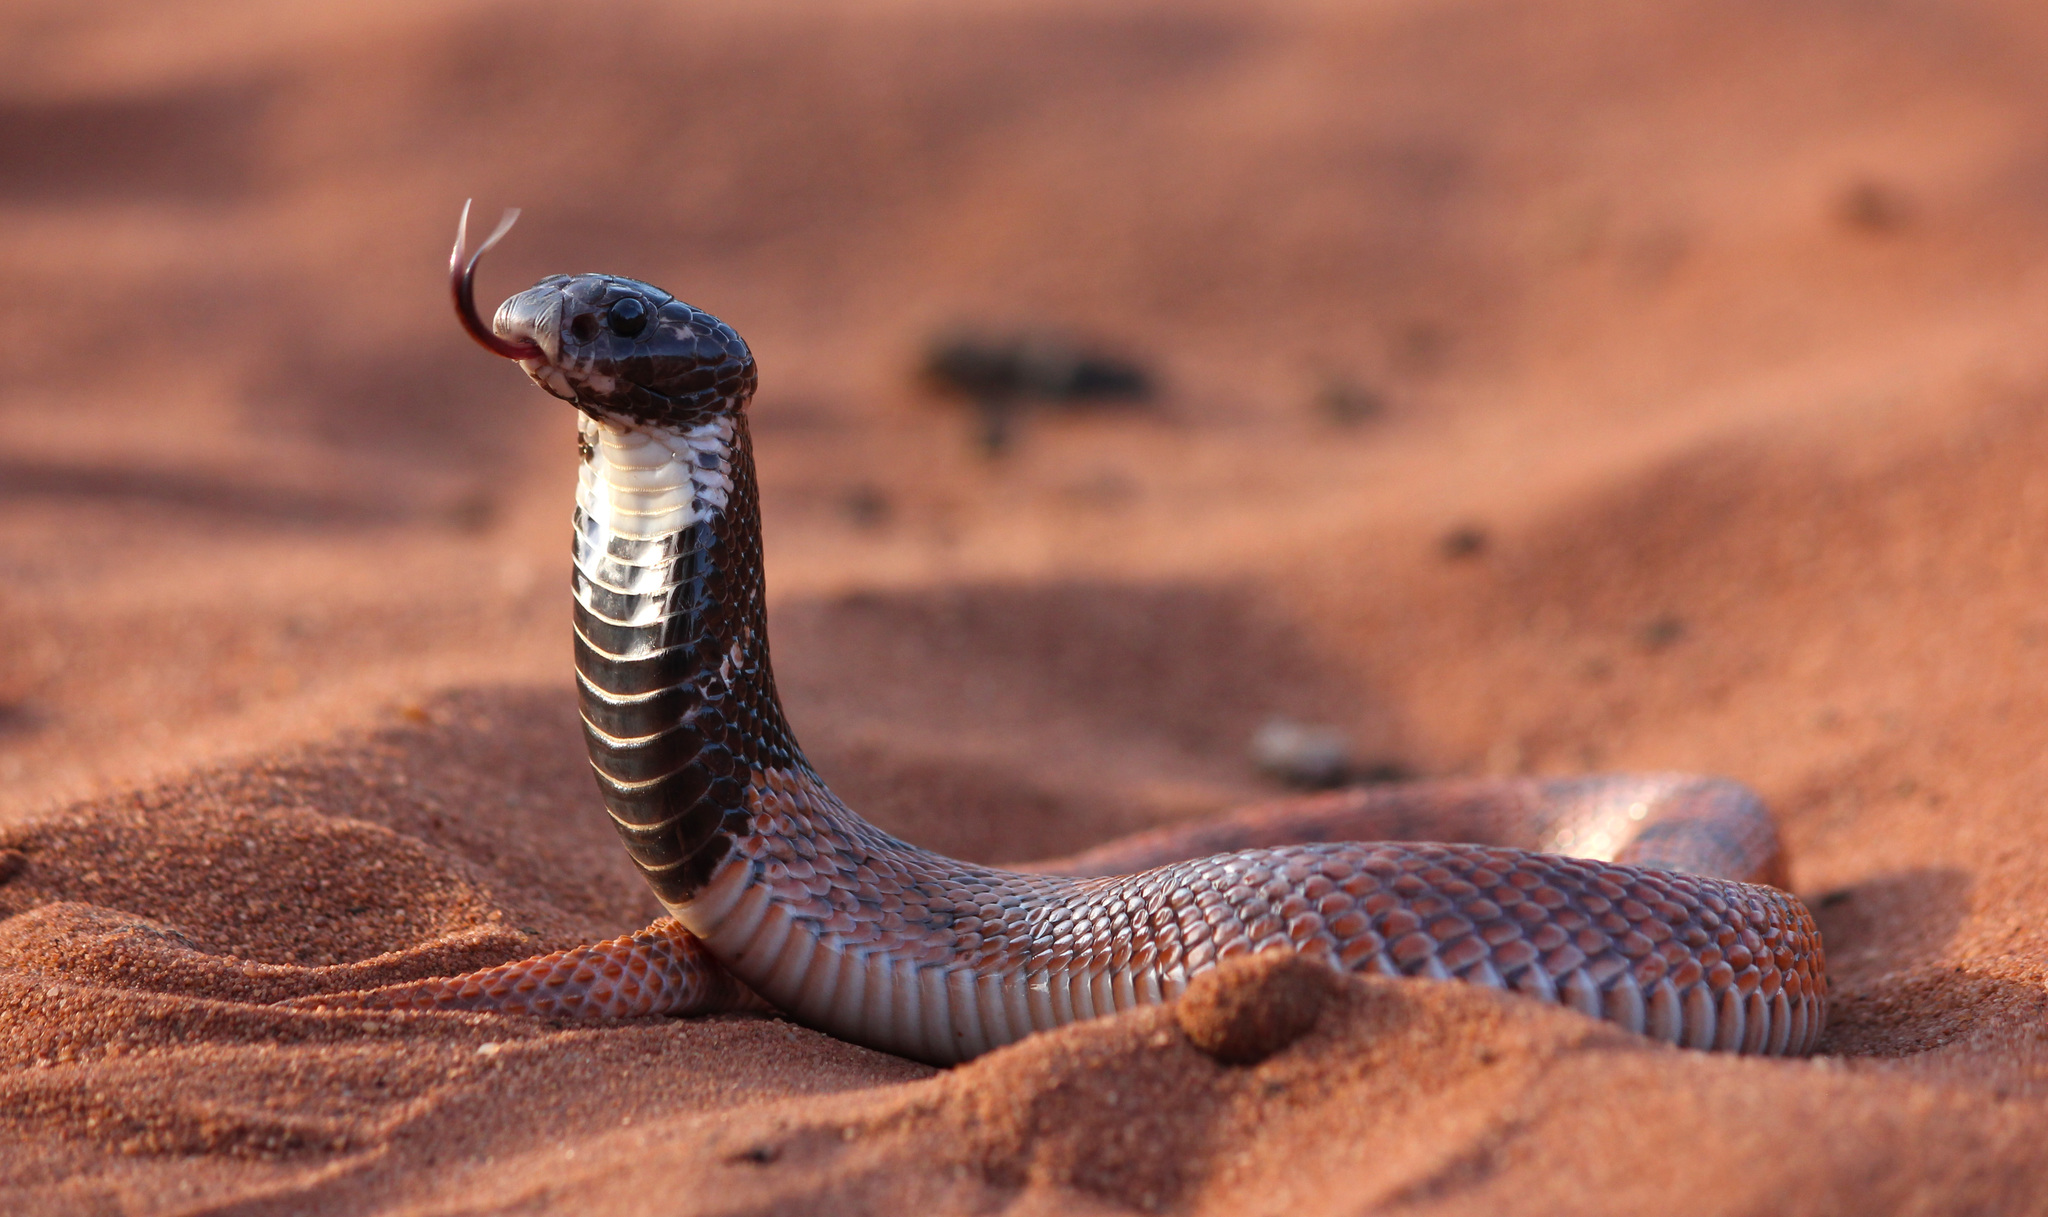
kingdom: Animalia
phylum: Chordata
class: Squamata
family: Elapidae
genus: Aspidelaps
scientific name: Aspidelaps scutatus
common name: Speckled shield cobra
